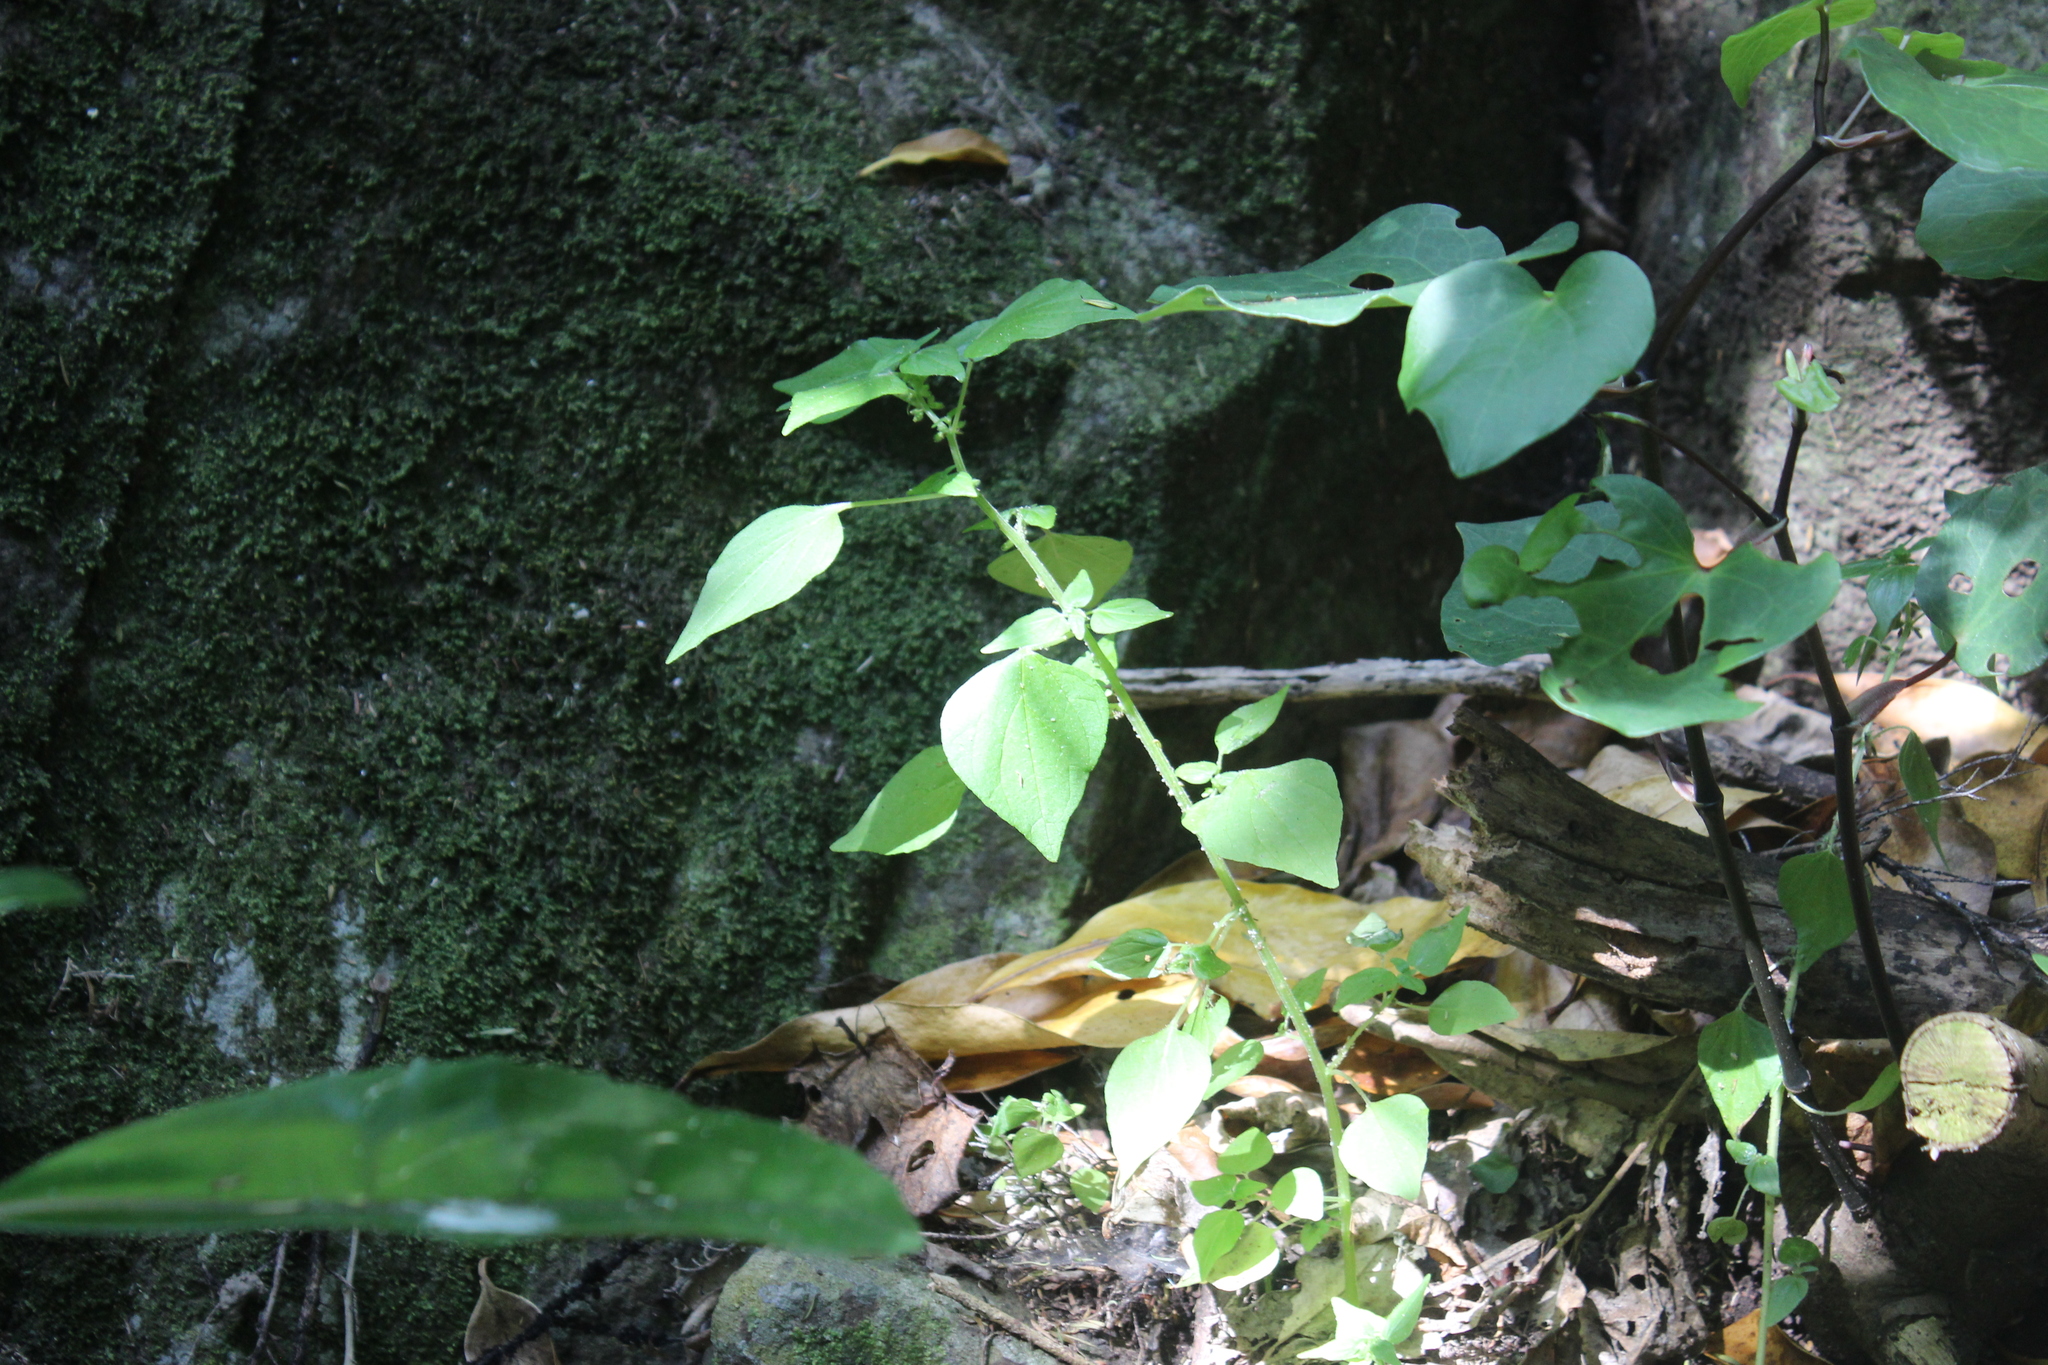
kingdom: Plantae
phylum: Tracheophyta
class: Magnoliopsida
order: Rosales
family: Urticaceae
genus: Parietaria
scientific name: Parietaria debilis
